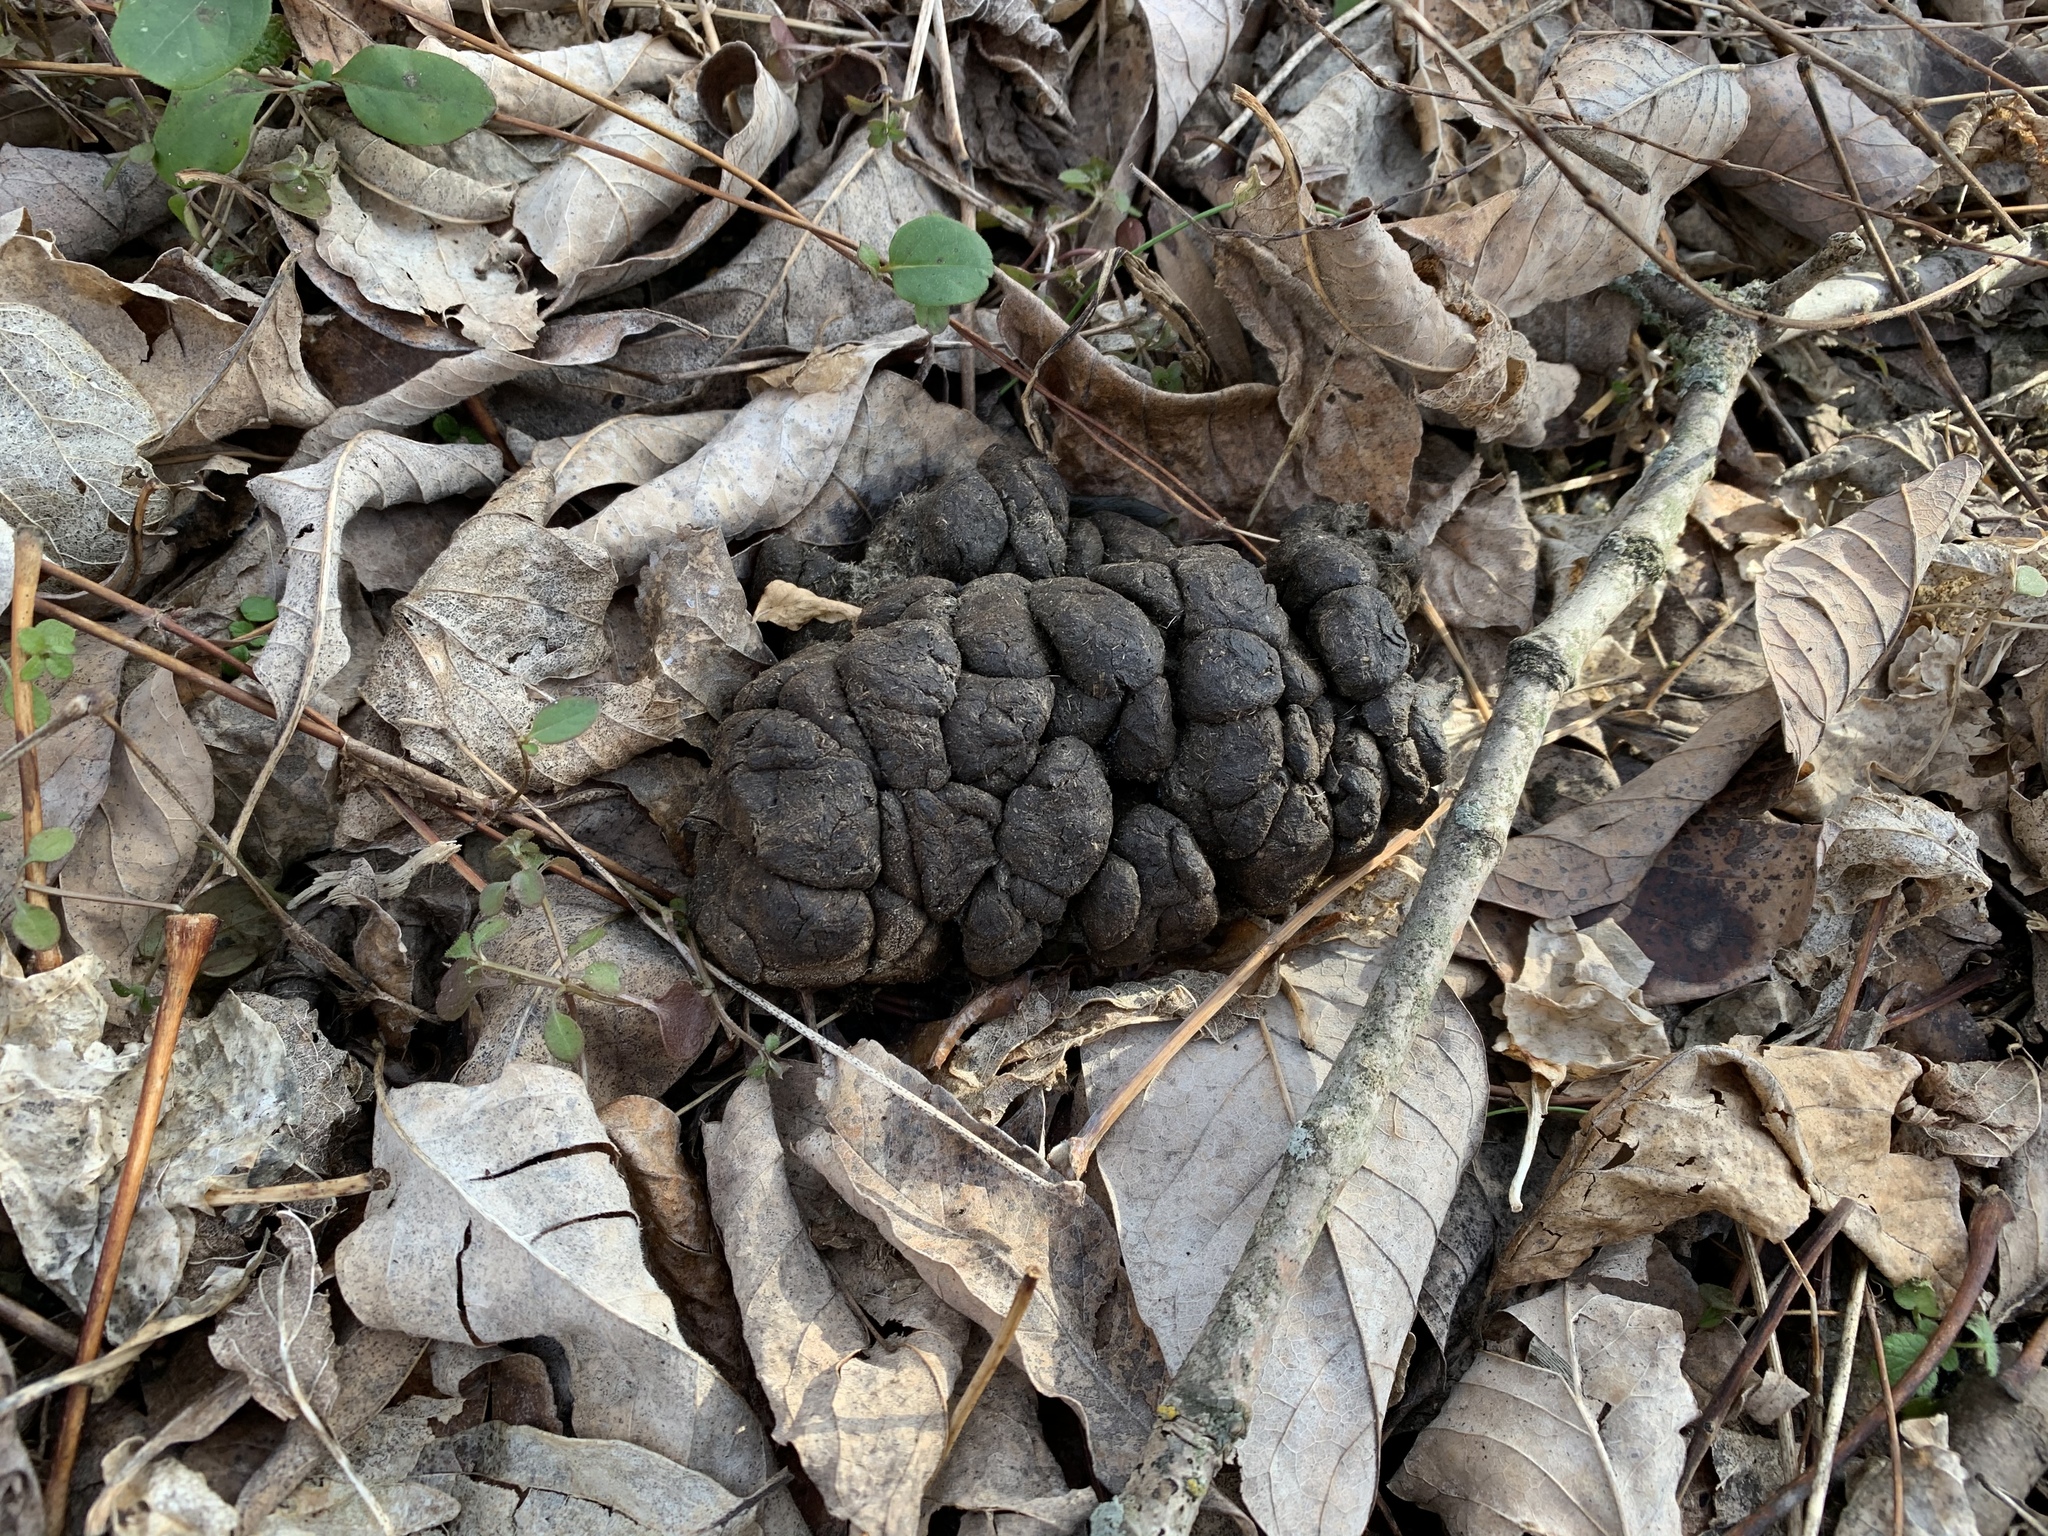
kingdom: Animalia
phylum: Chordata
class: Mammalia
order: Artiodactyla
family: Cervidae
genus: Odocoileus
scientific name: Odocoileus virginianus
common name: White-tailed deer
